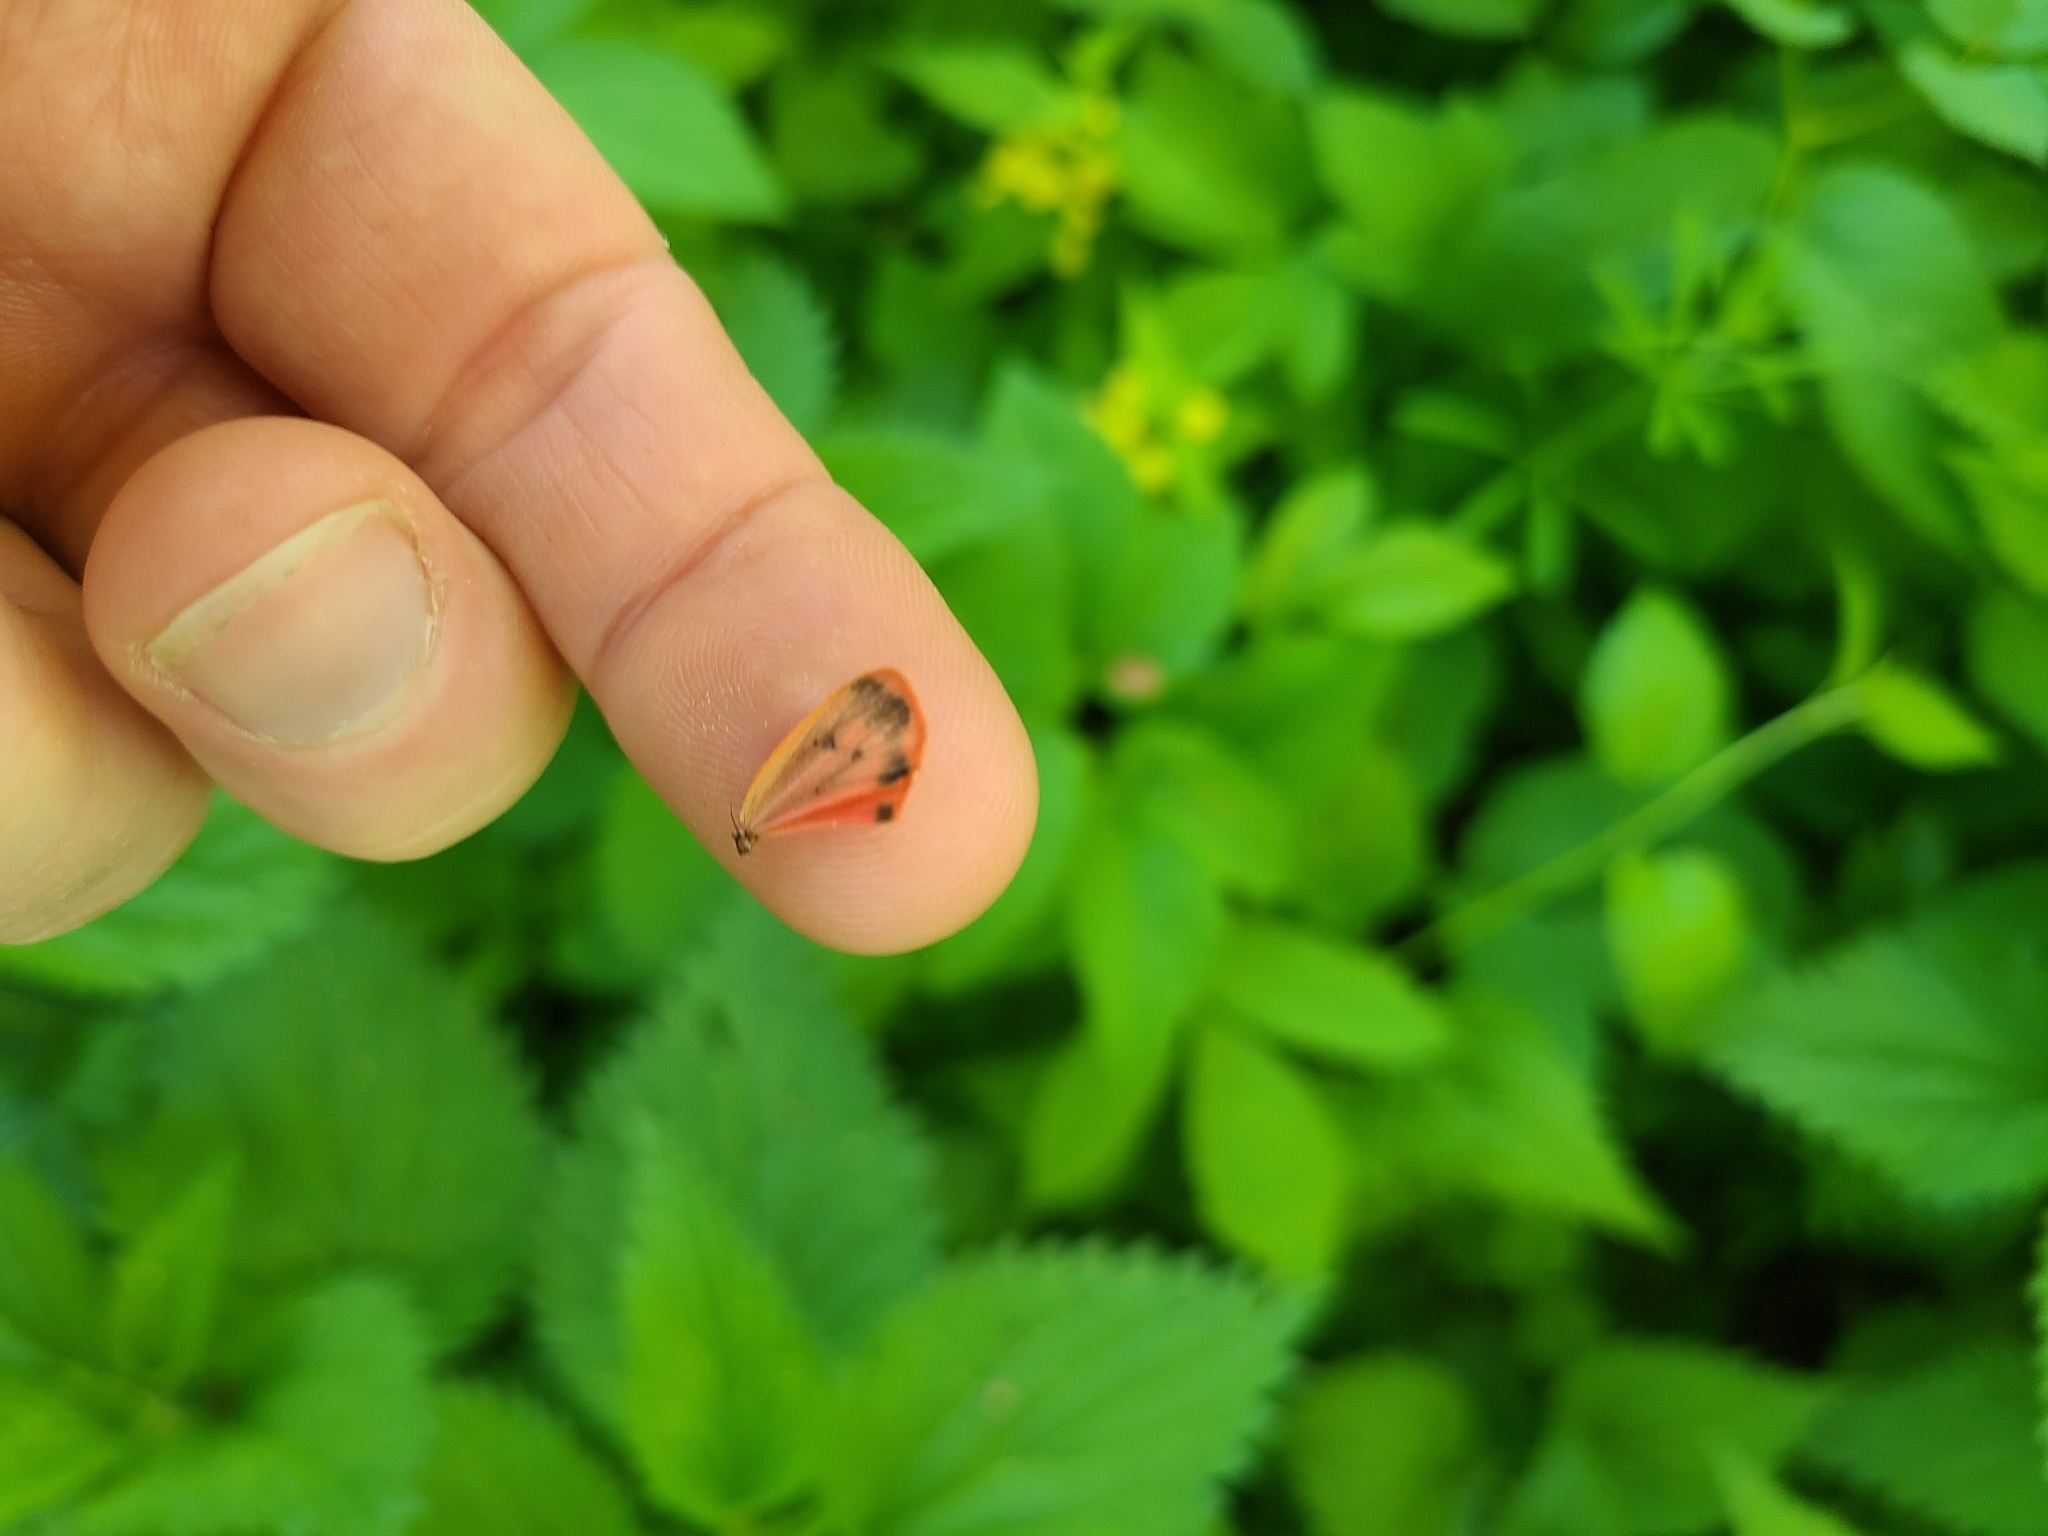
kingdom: Animalia
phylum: Arthropoda
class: Insecta
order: Lepidoptera
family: Erebidae
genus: Phragmatobia
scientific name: Phragmatobia fuliginosa
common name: Ruby tiger
